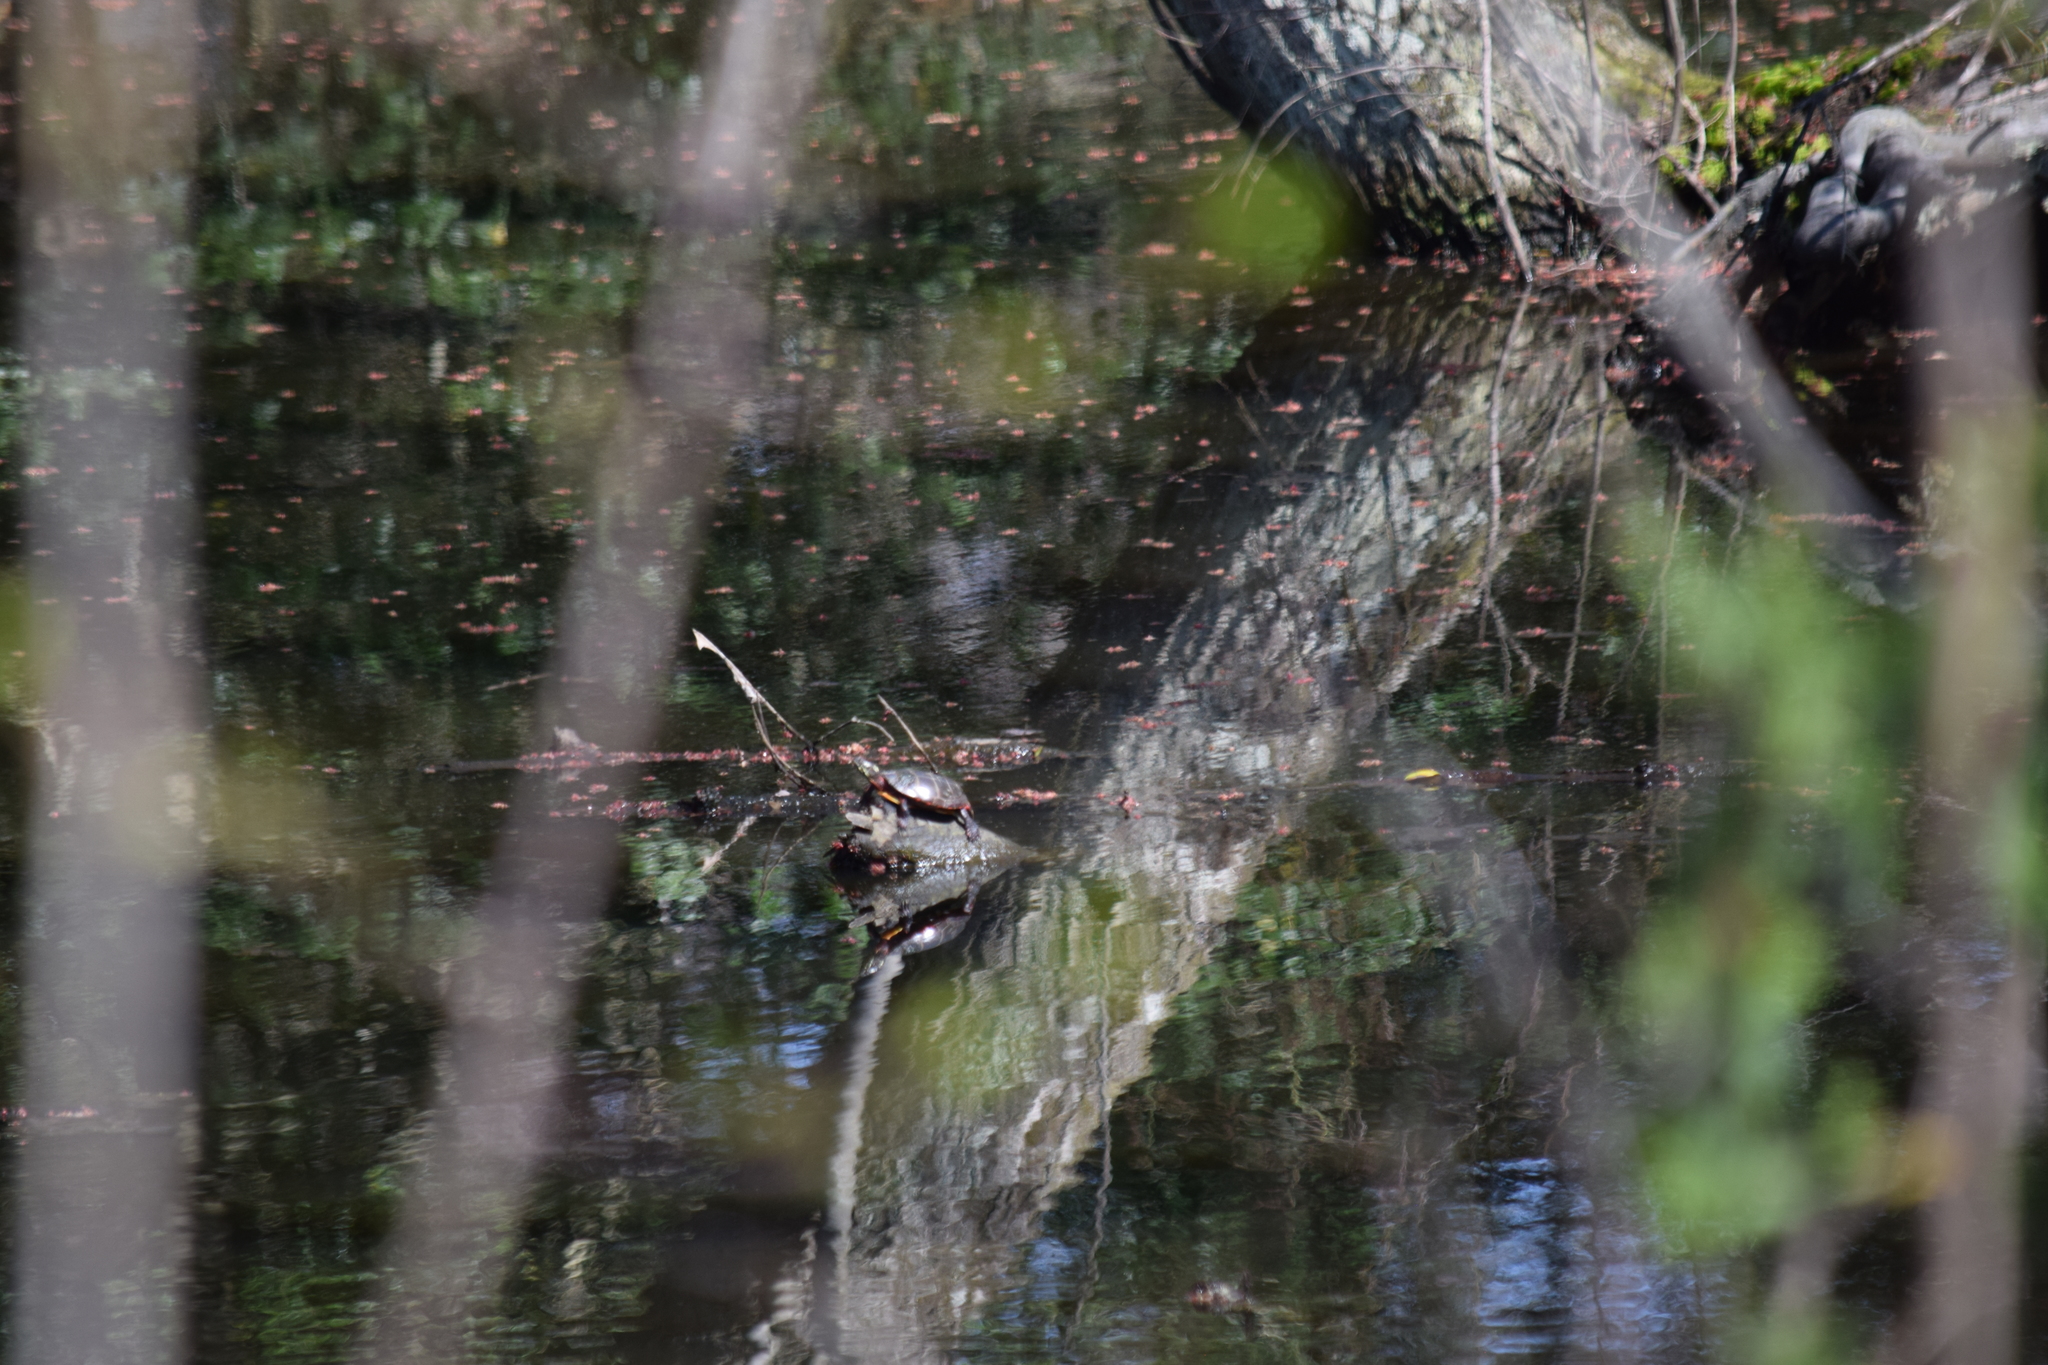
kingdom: Animalia
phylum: Chordata
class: Testudines
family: Emydidae
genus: Chrysemys
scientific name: Chrysemys picta
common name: Painted turtle
